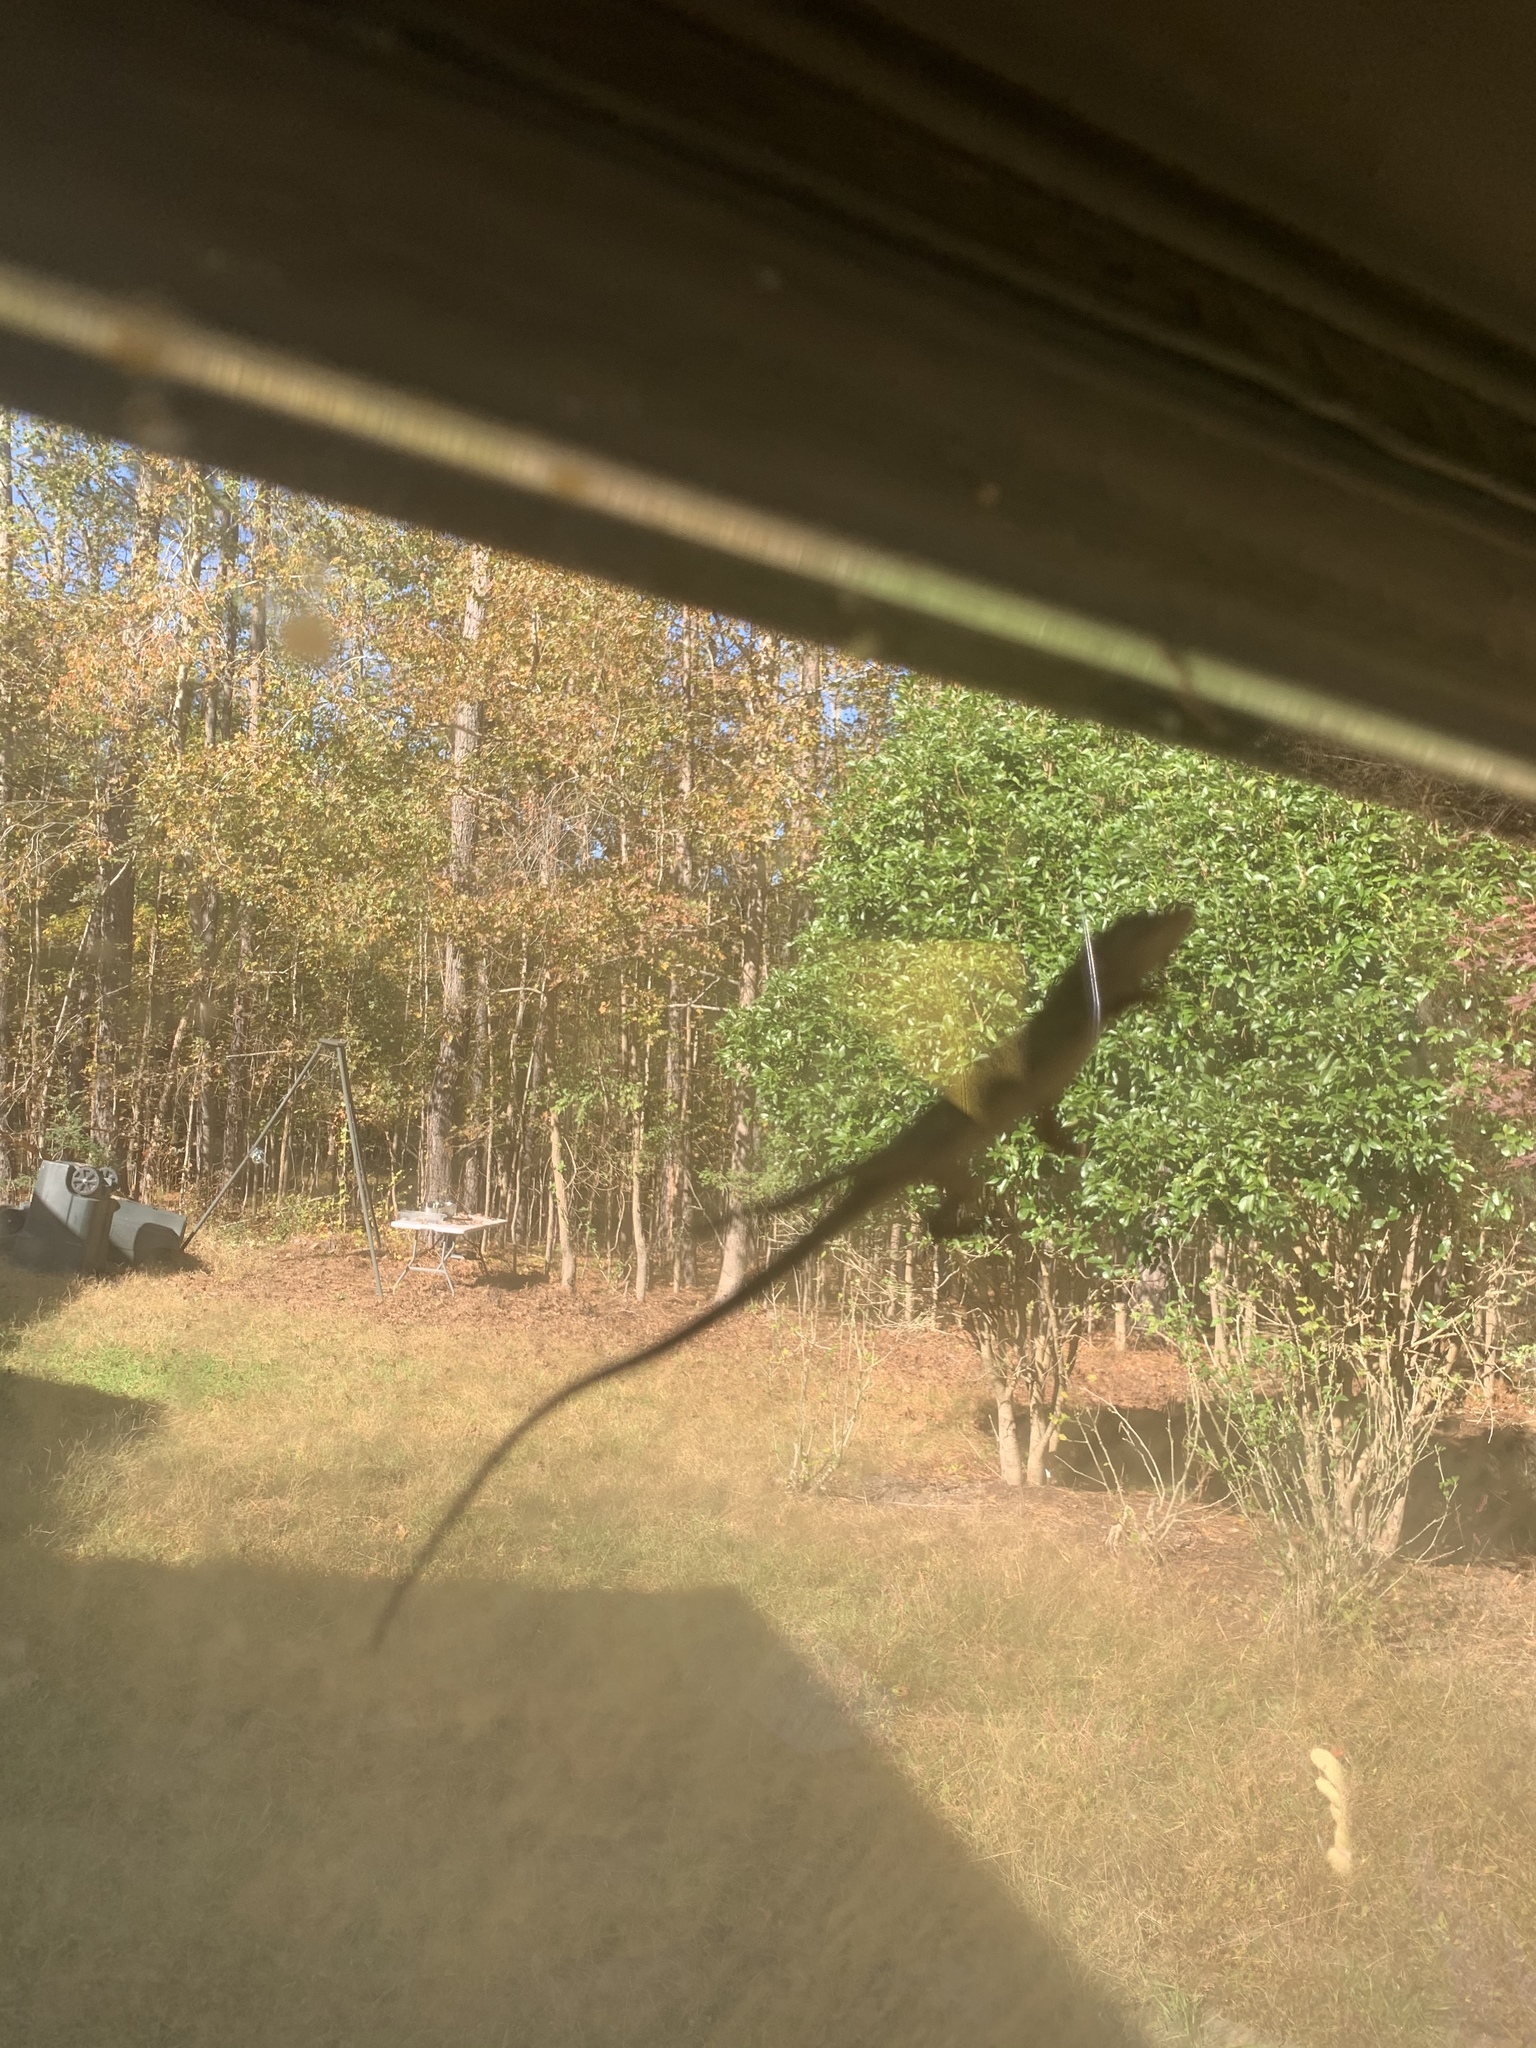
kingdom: Animalia
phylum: Chordata
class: Squamata
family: Dactyloidae
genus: Anolis
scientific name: Anolis carolinensis
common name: Green anole
